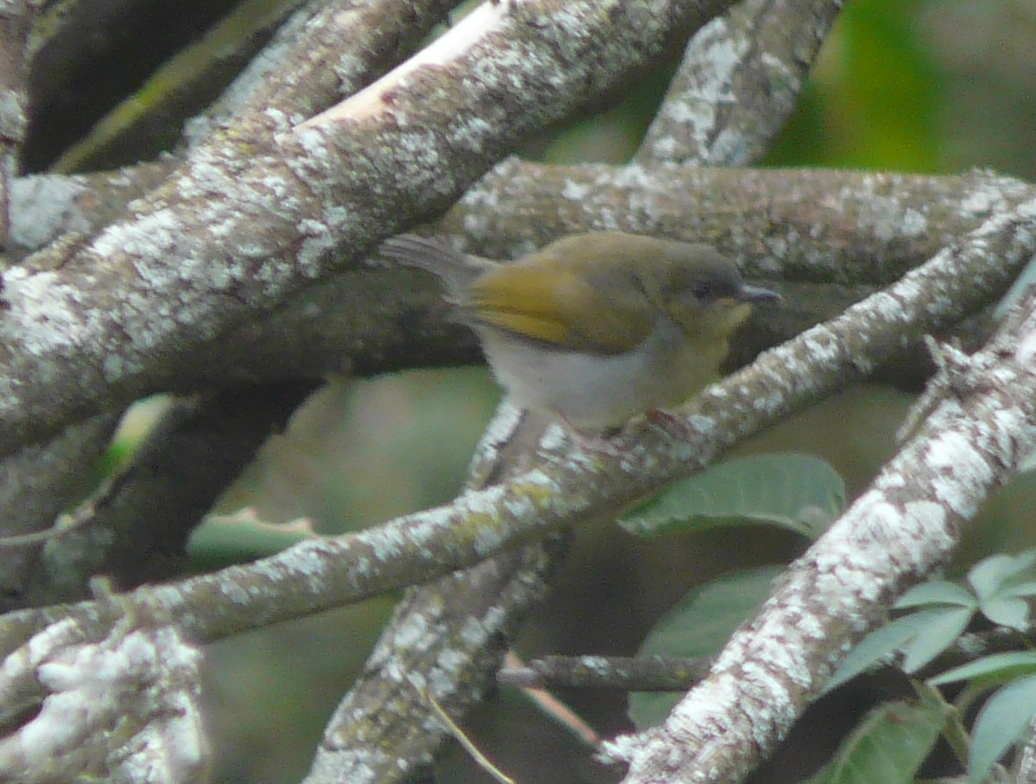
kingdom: Animalia
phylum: Chordata
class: Aves
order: Passeriformes
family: Cisticolidae
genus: Camaroptera
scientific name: Camaroptera brachyura
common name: Green-backed camaroptera
